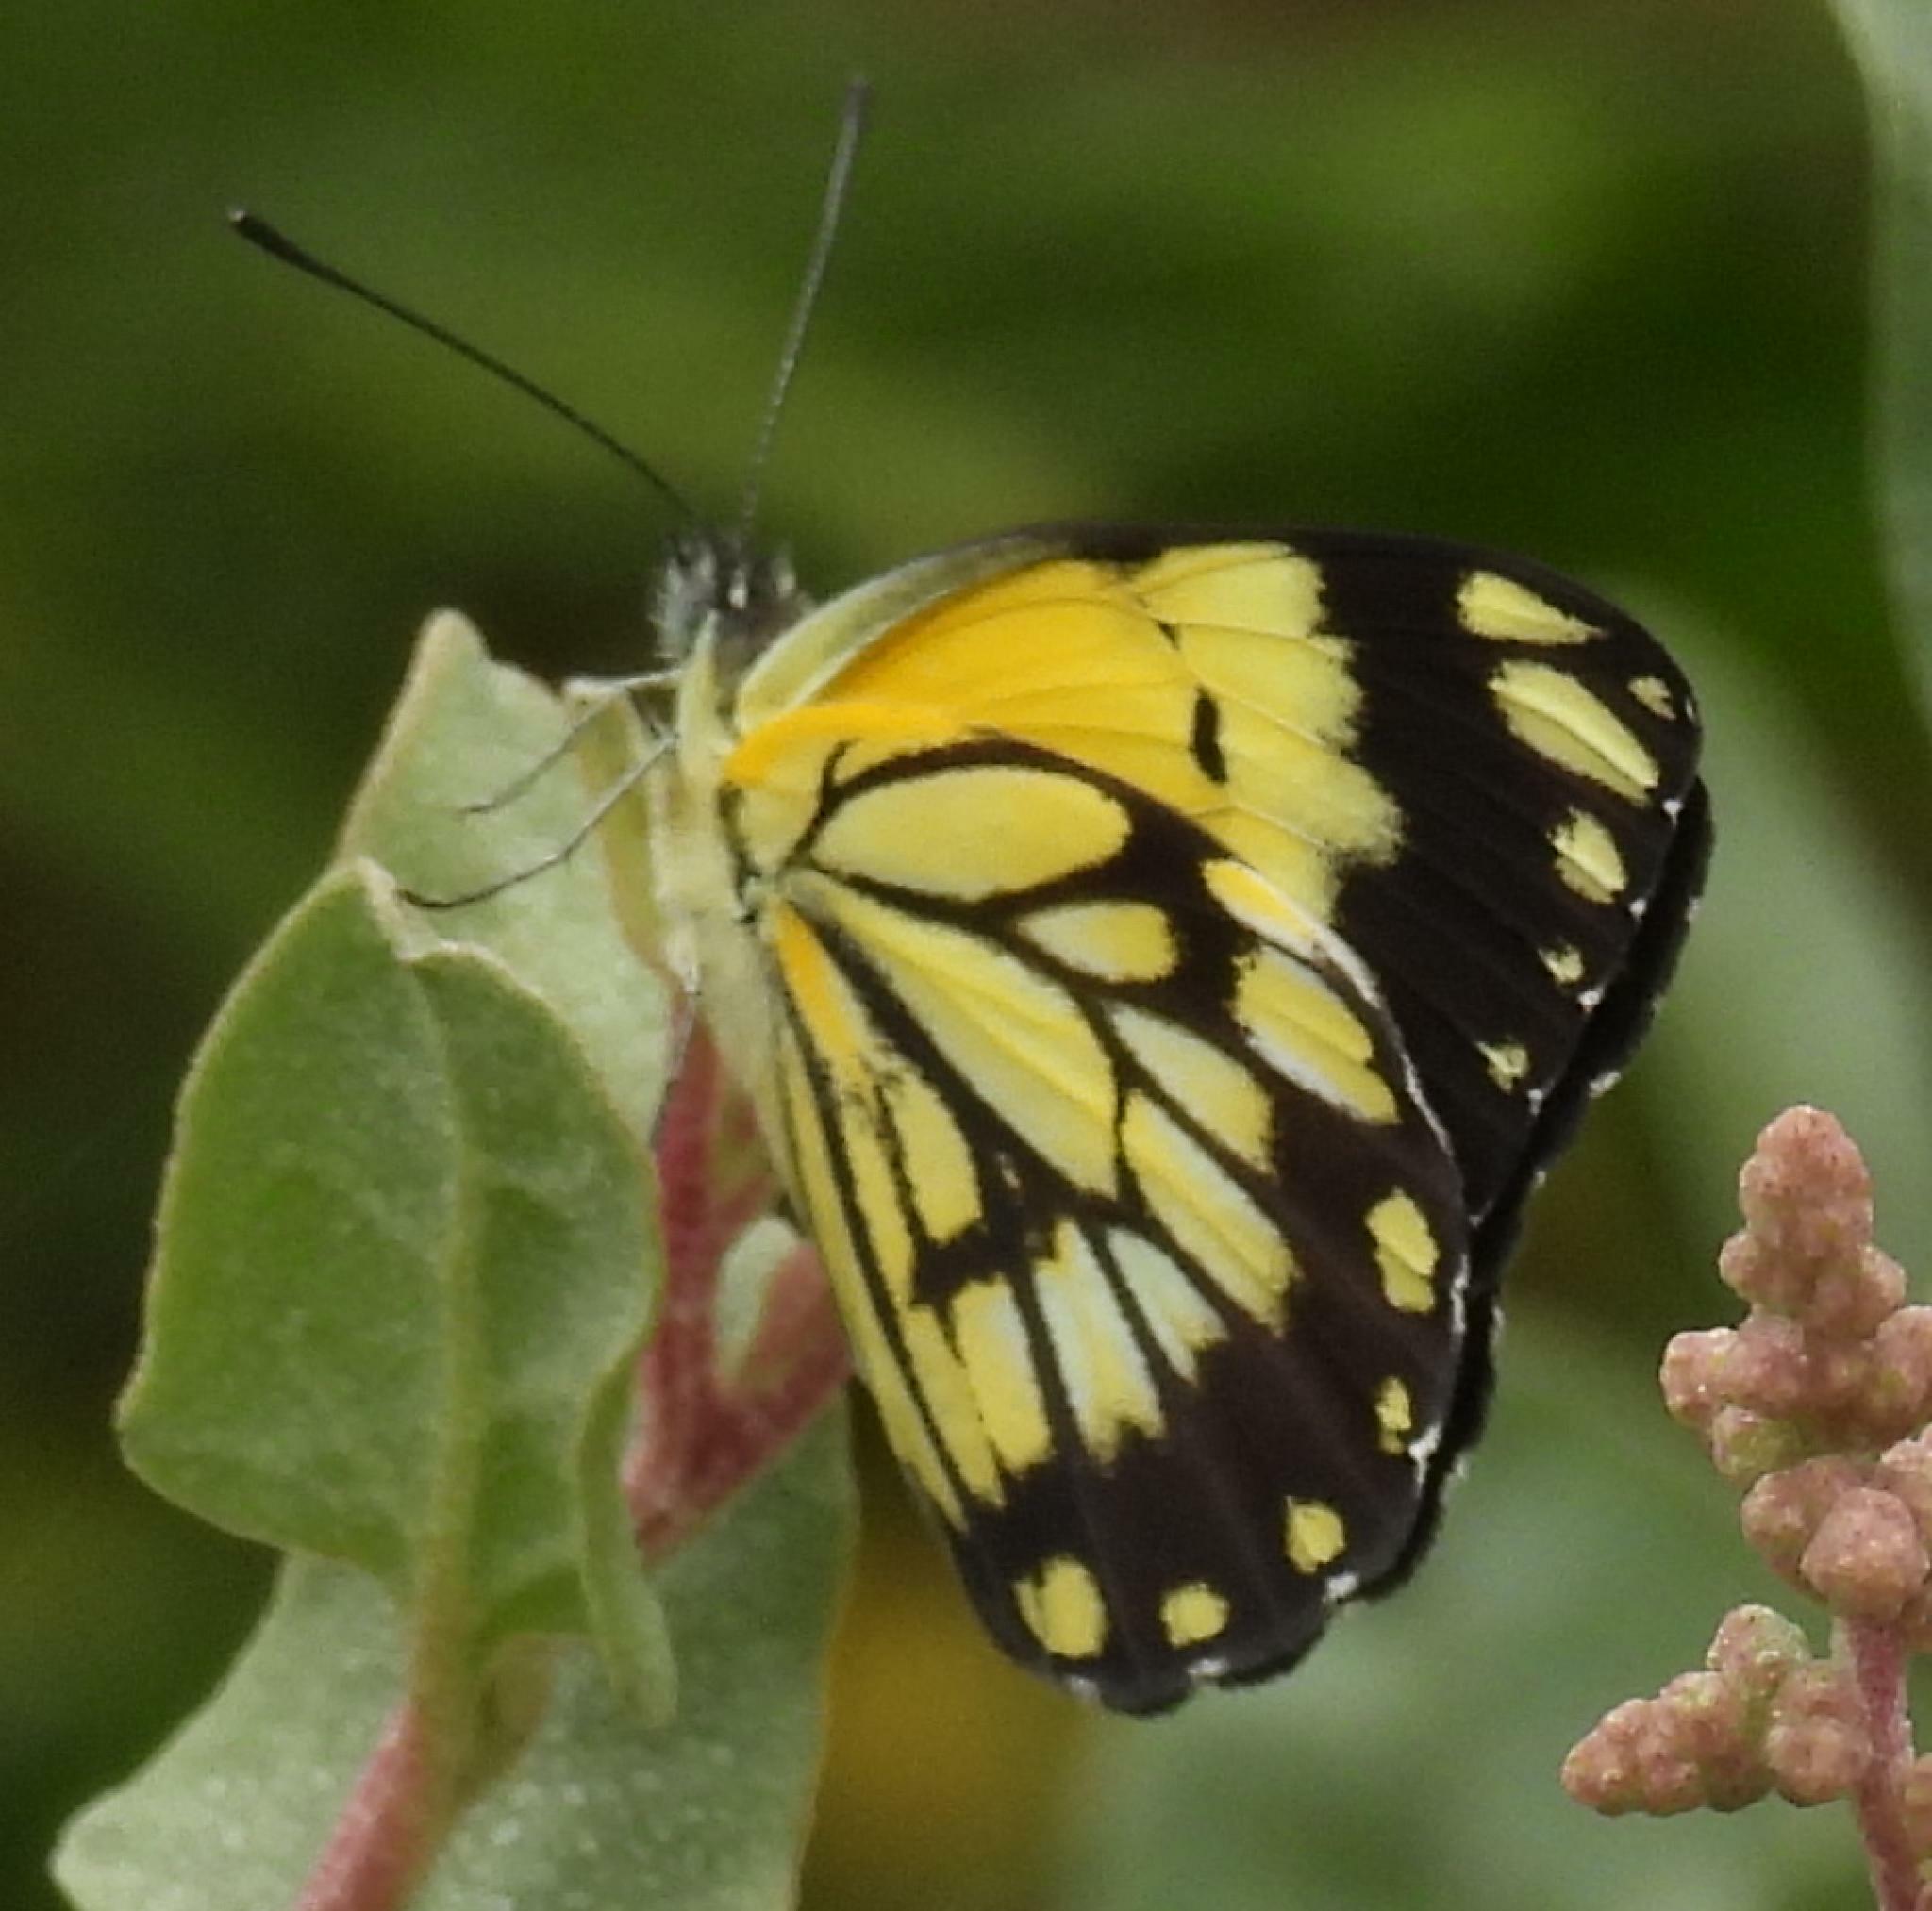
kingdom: Animalia
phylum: Arthropoda
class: Insecta
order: Lepidoptera
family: Pieridae
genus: Belenois
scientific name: Belenois creona
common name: African caper white
